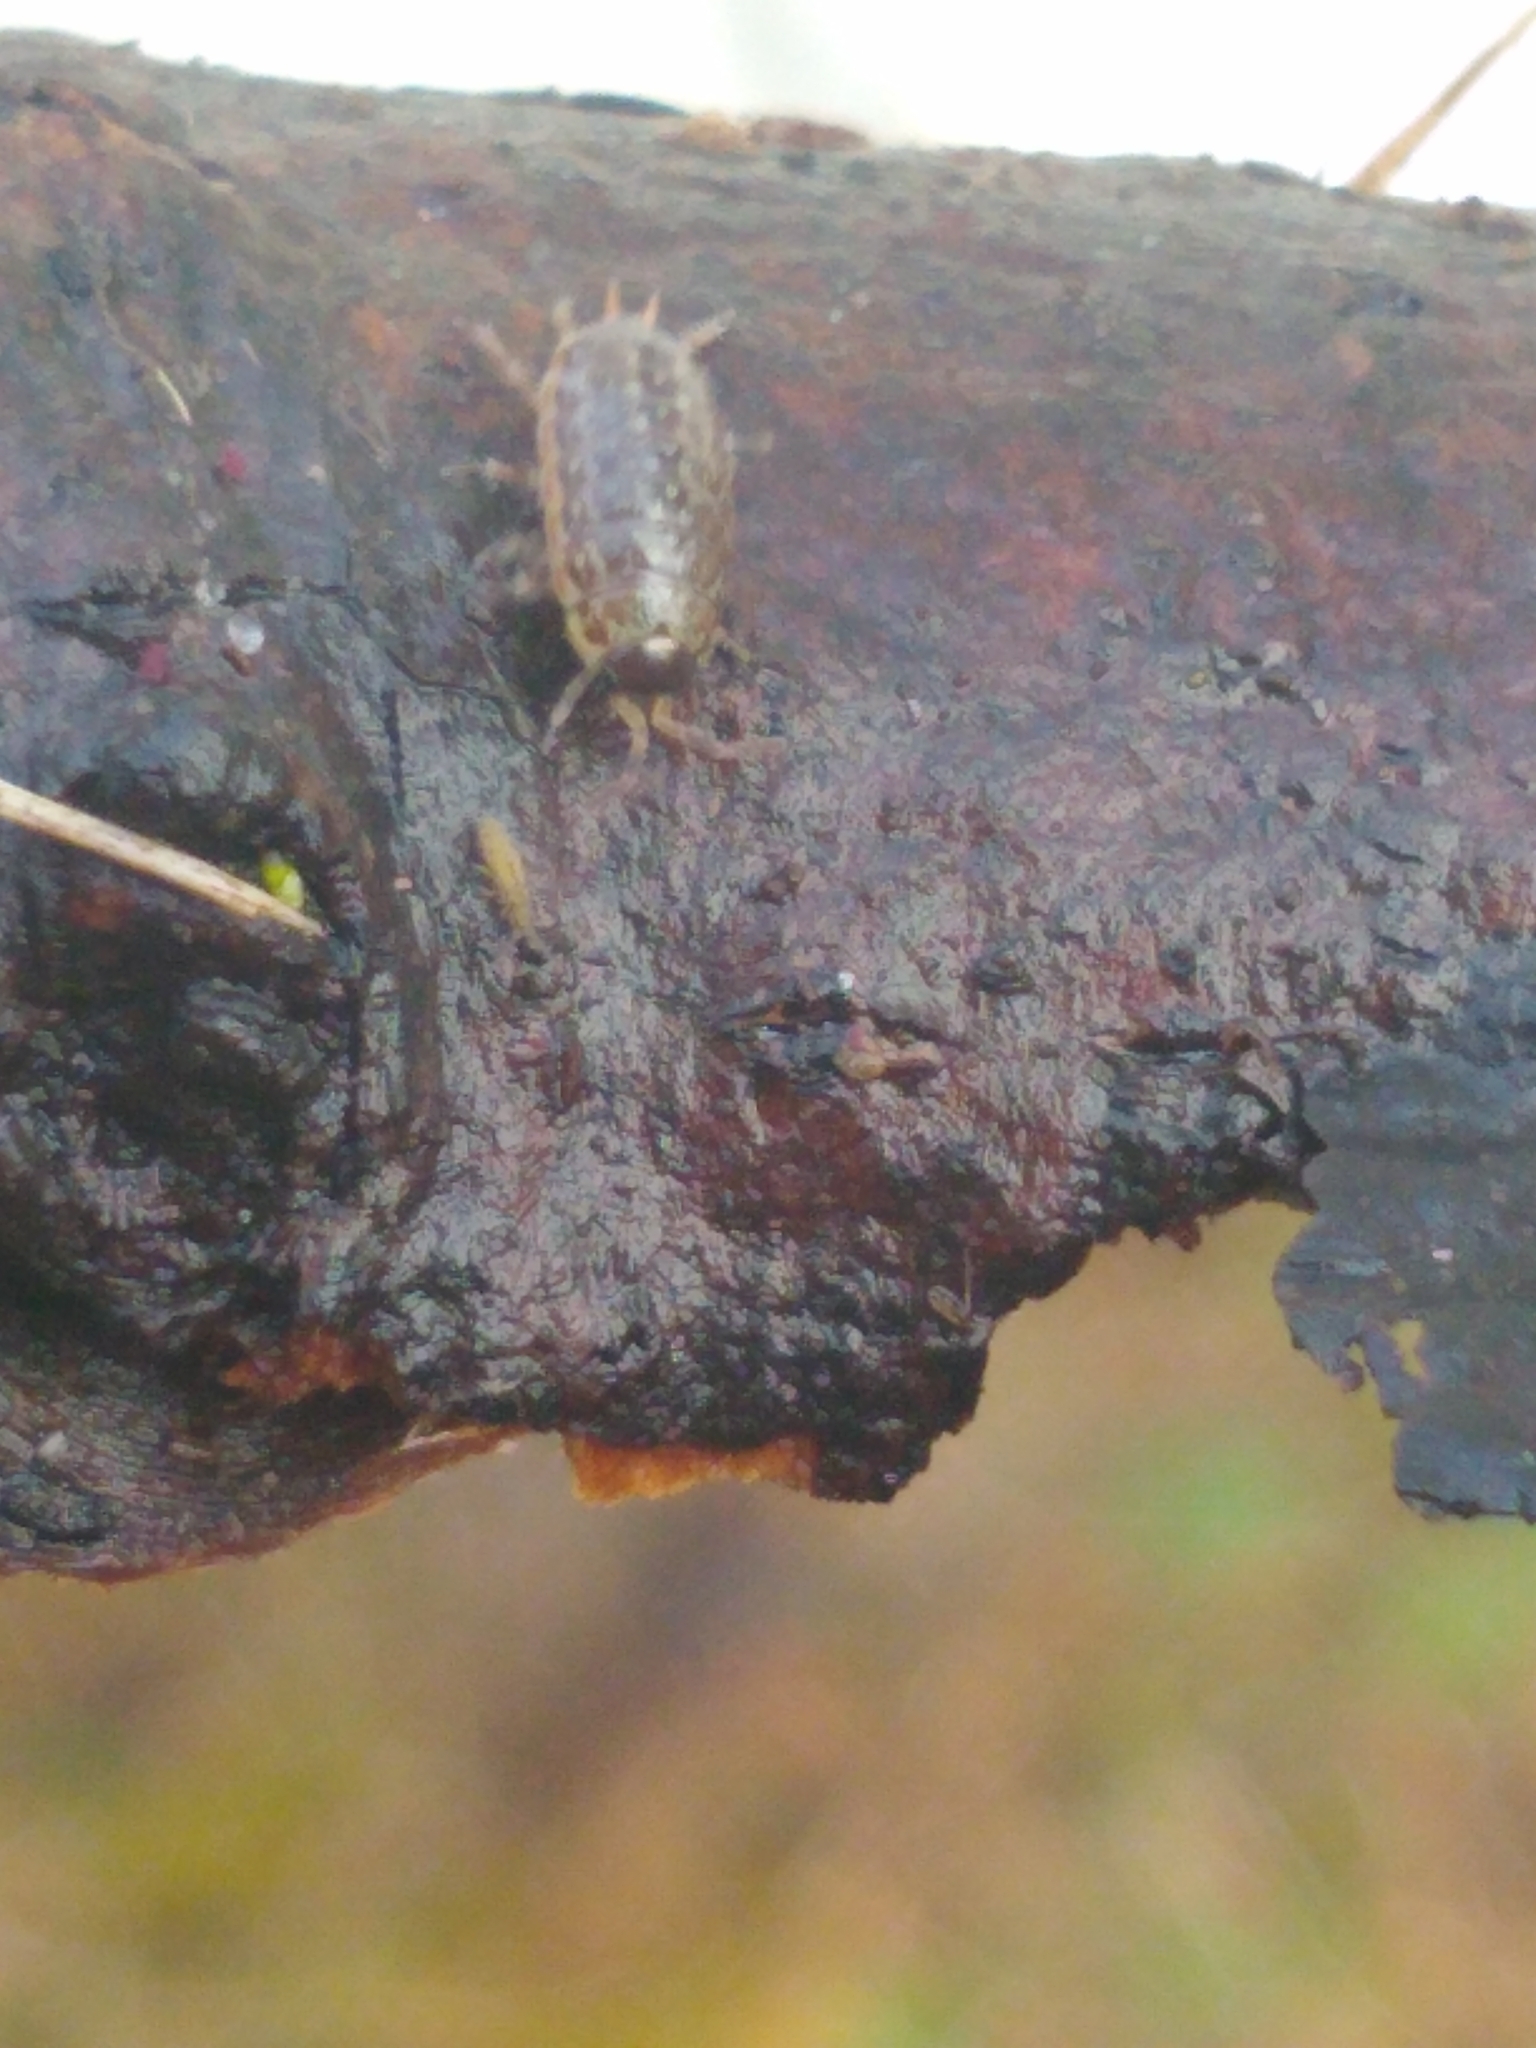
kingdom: Animalia
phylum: Arthropoda
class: Malacostraca
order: Isopoda
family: Philosciidae
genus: Philoscia
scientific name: Philoscia muscorum
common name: Common striped woodlouse
